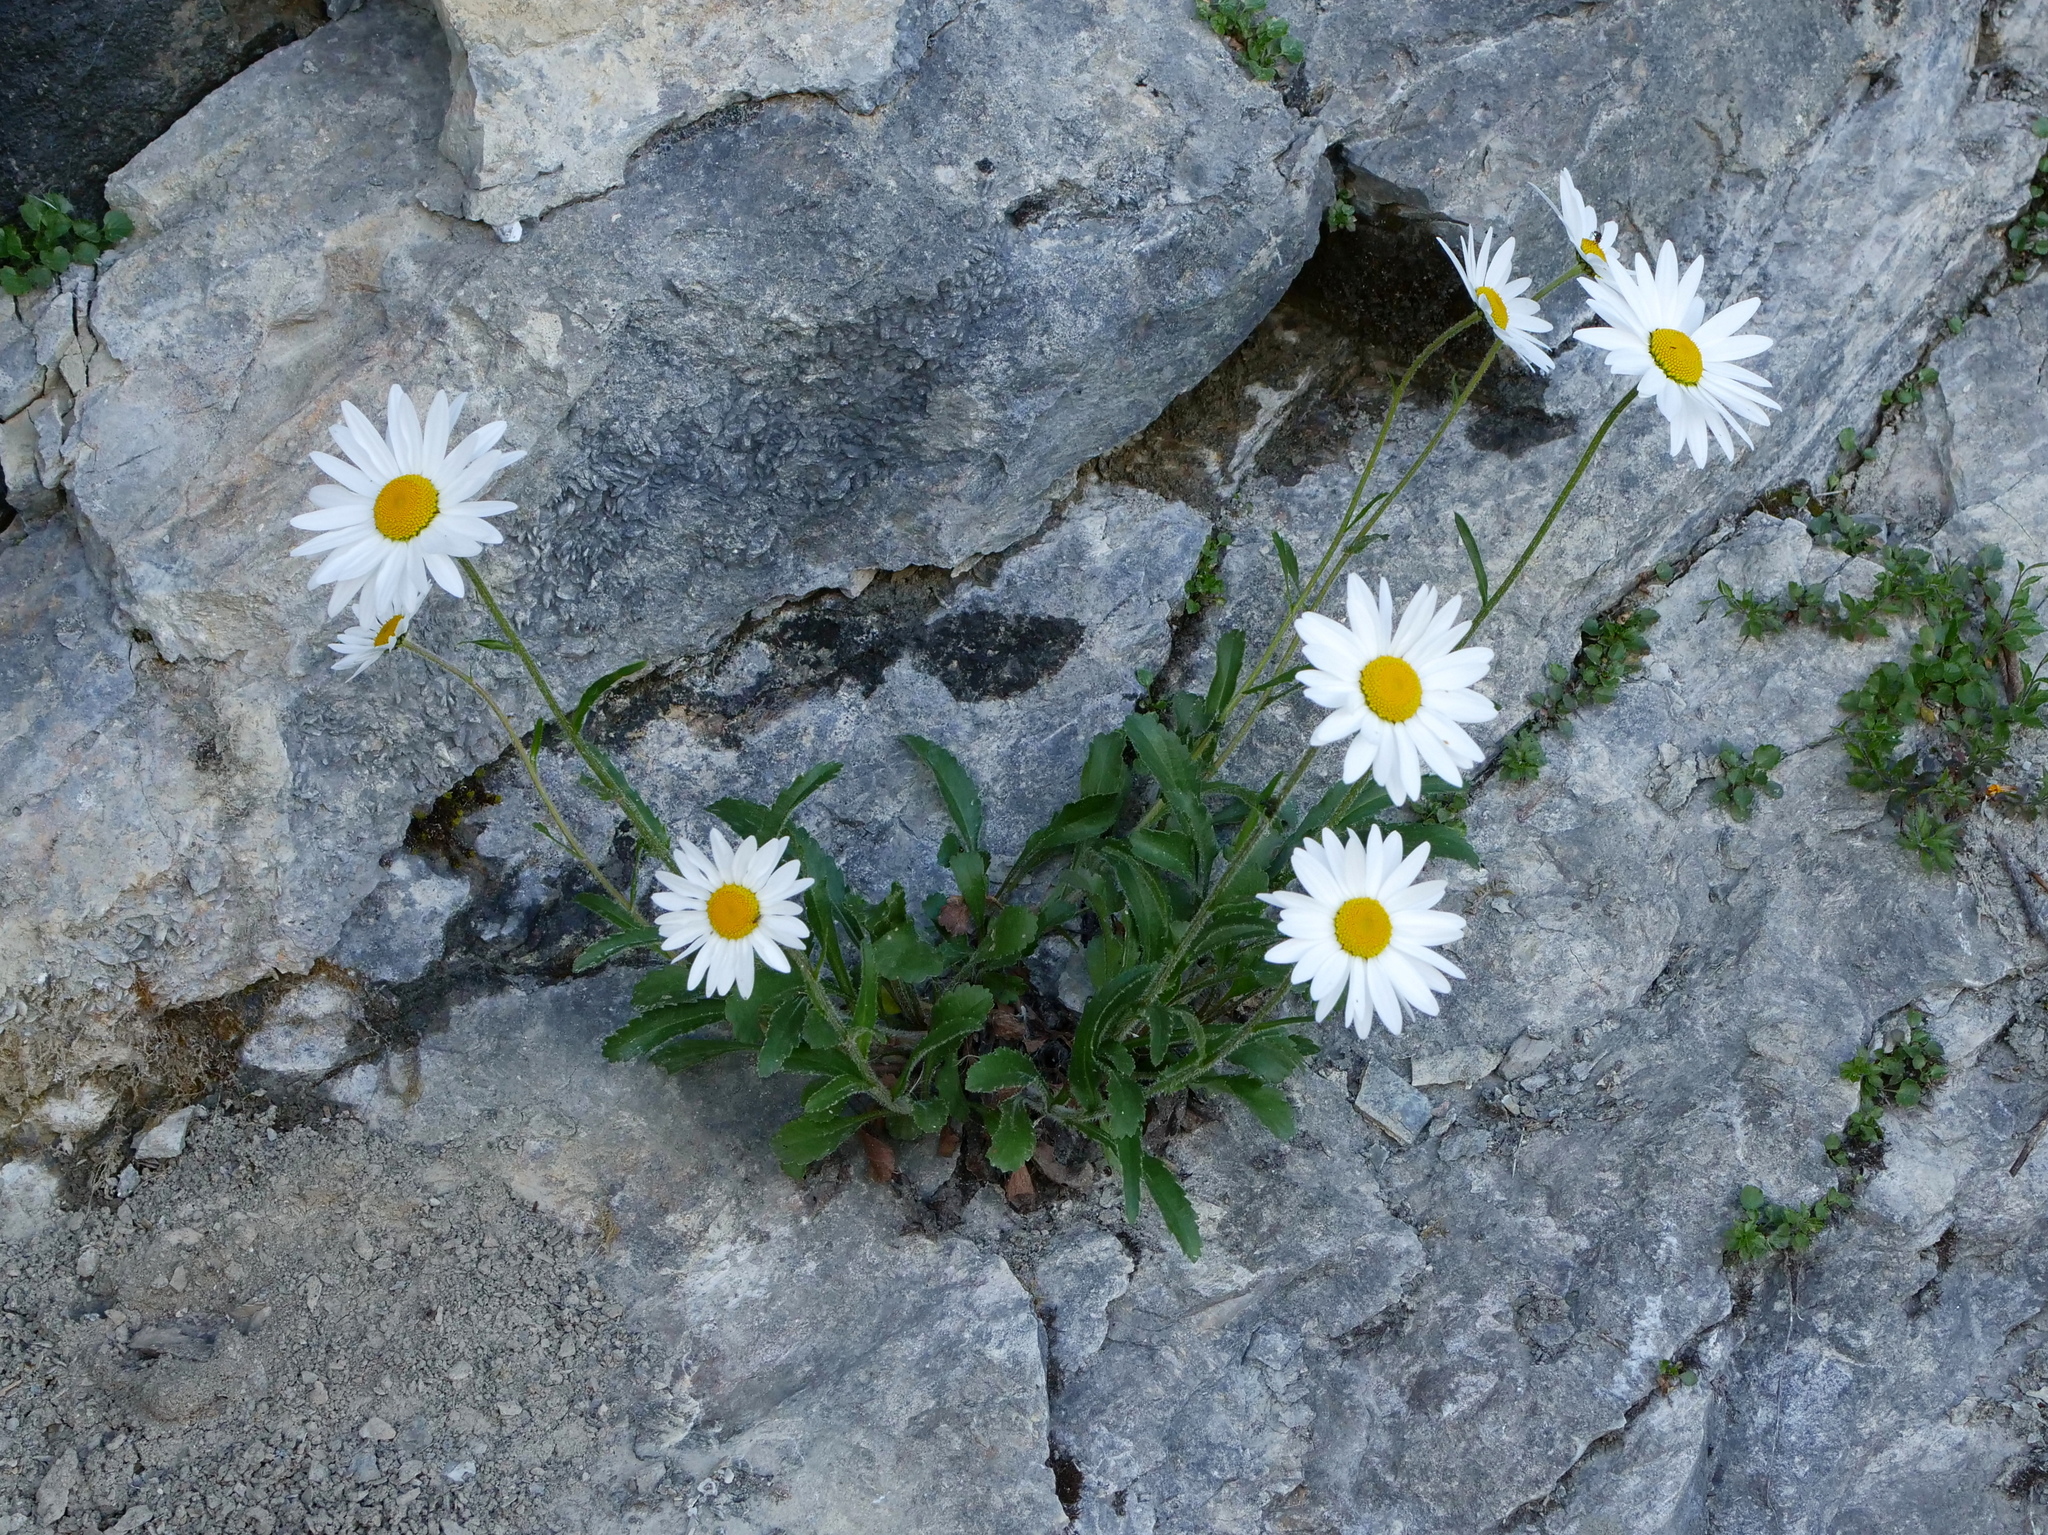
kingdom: Plantae
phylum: Tracheophyta
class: Magnoliopsida
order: Asterales
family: Asteraceae
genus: Leucanthemum
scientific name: Leucanthemum adustum
